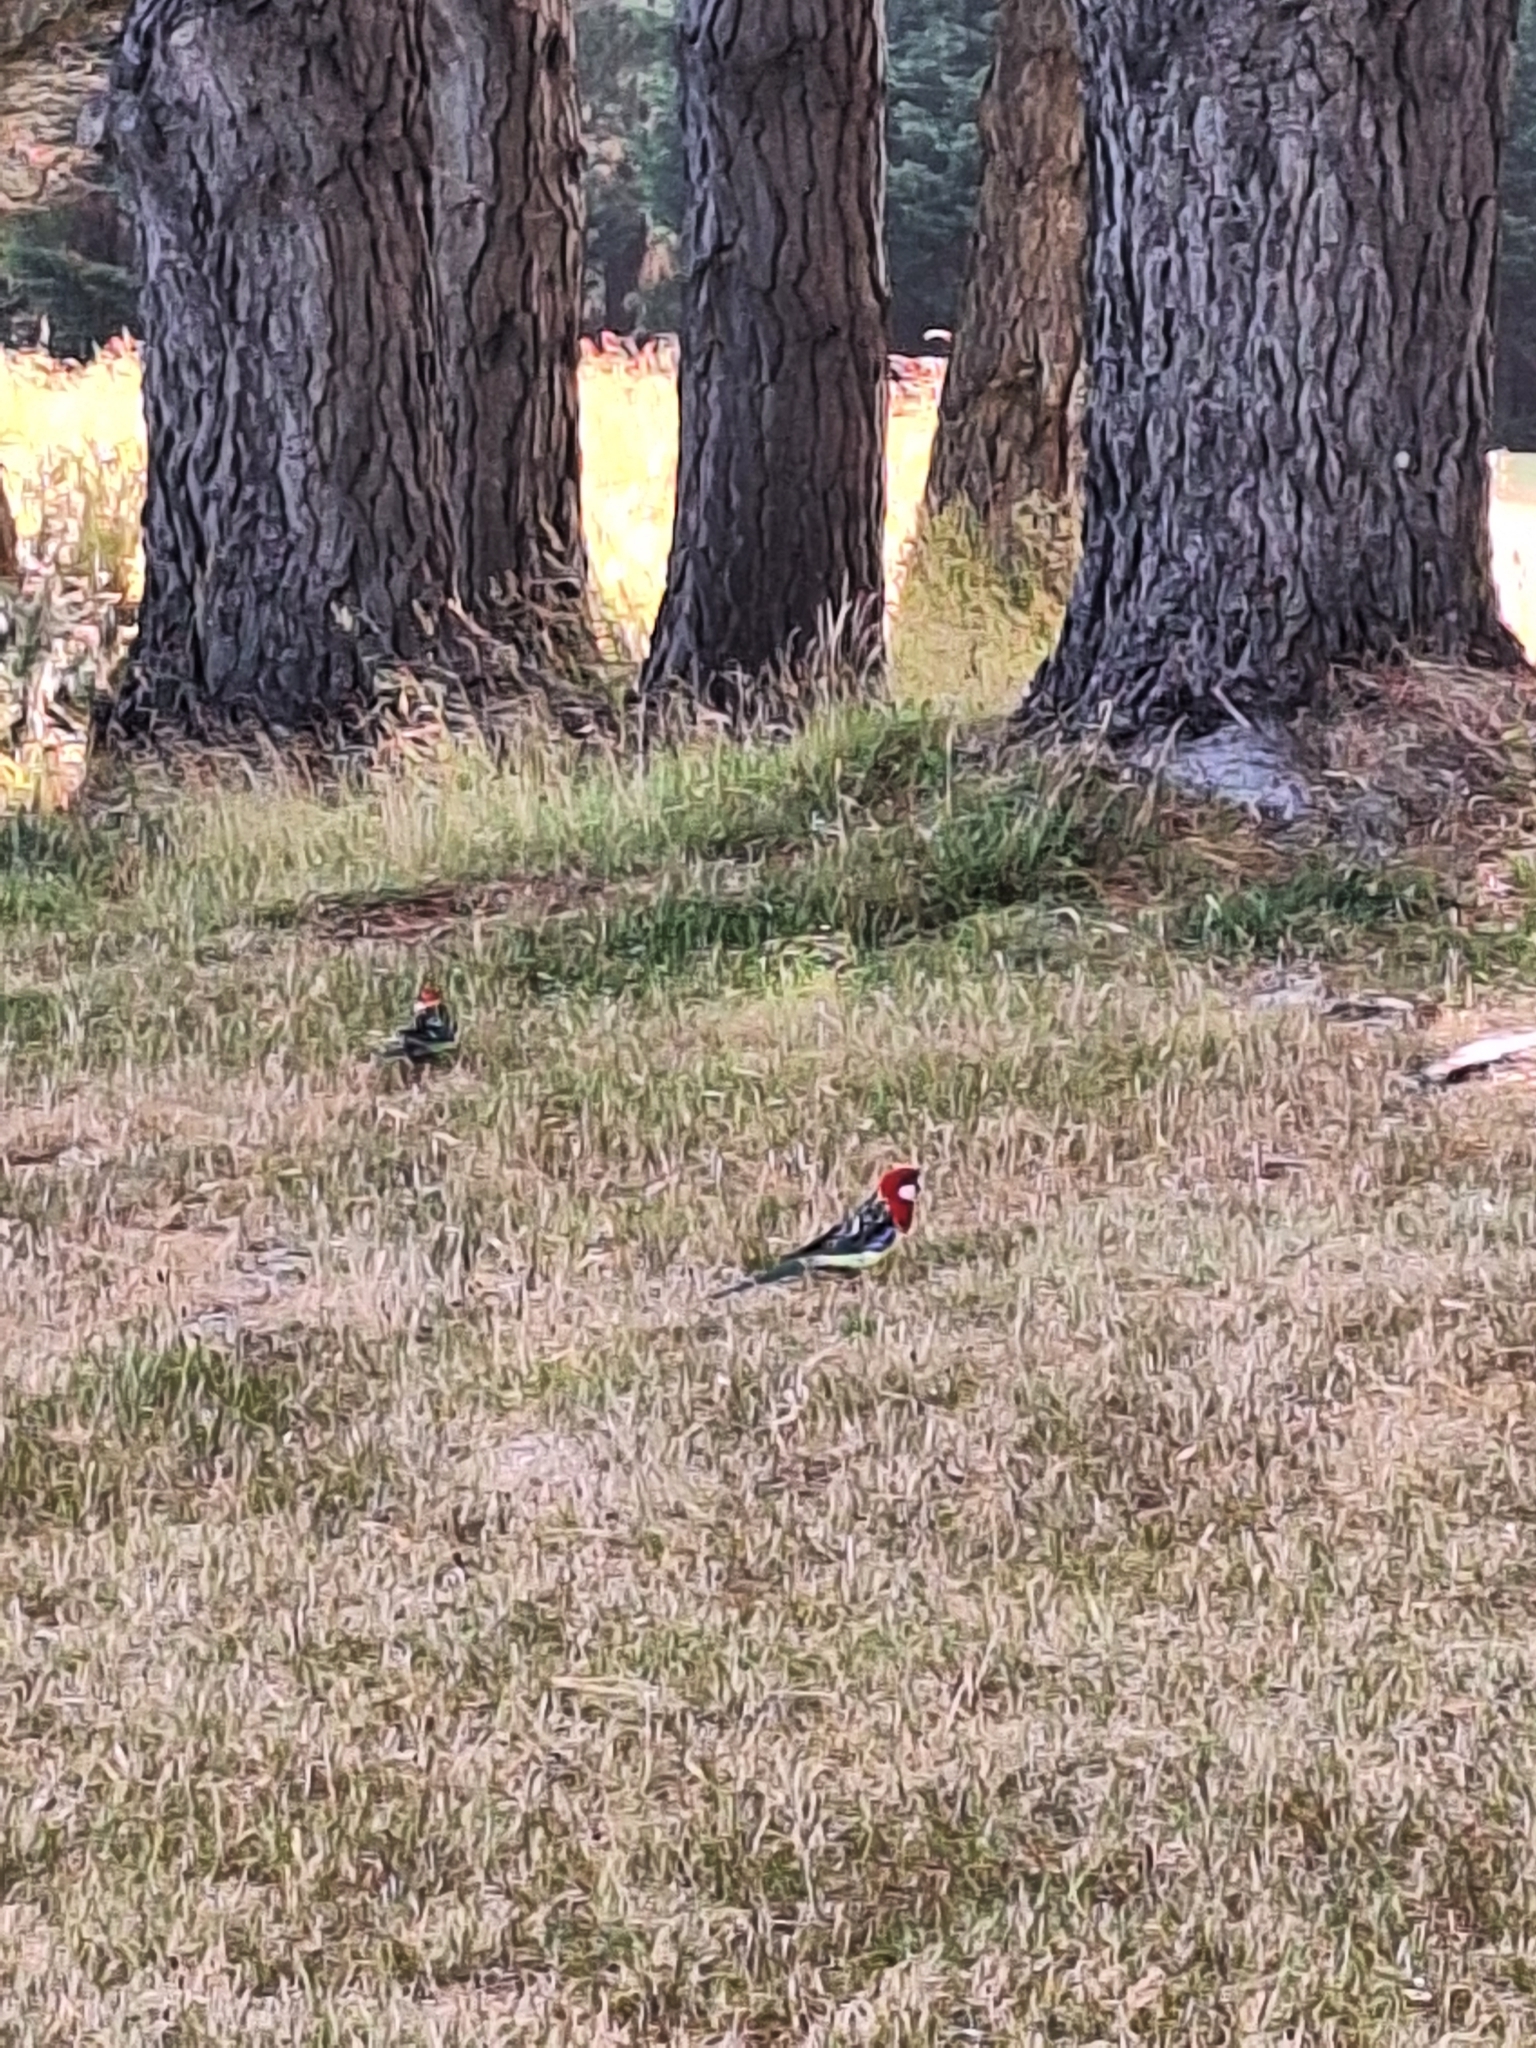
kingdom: Animalia
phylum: Chordata
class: Aves
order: Psittaciformes
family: Psittacidae
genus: Platycercus
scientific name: Platycercus eximius
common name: Eastern rosella
